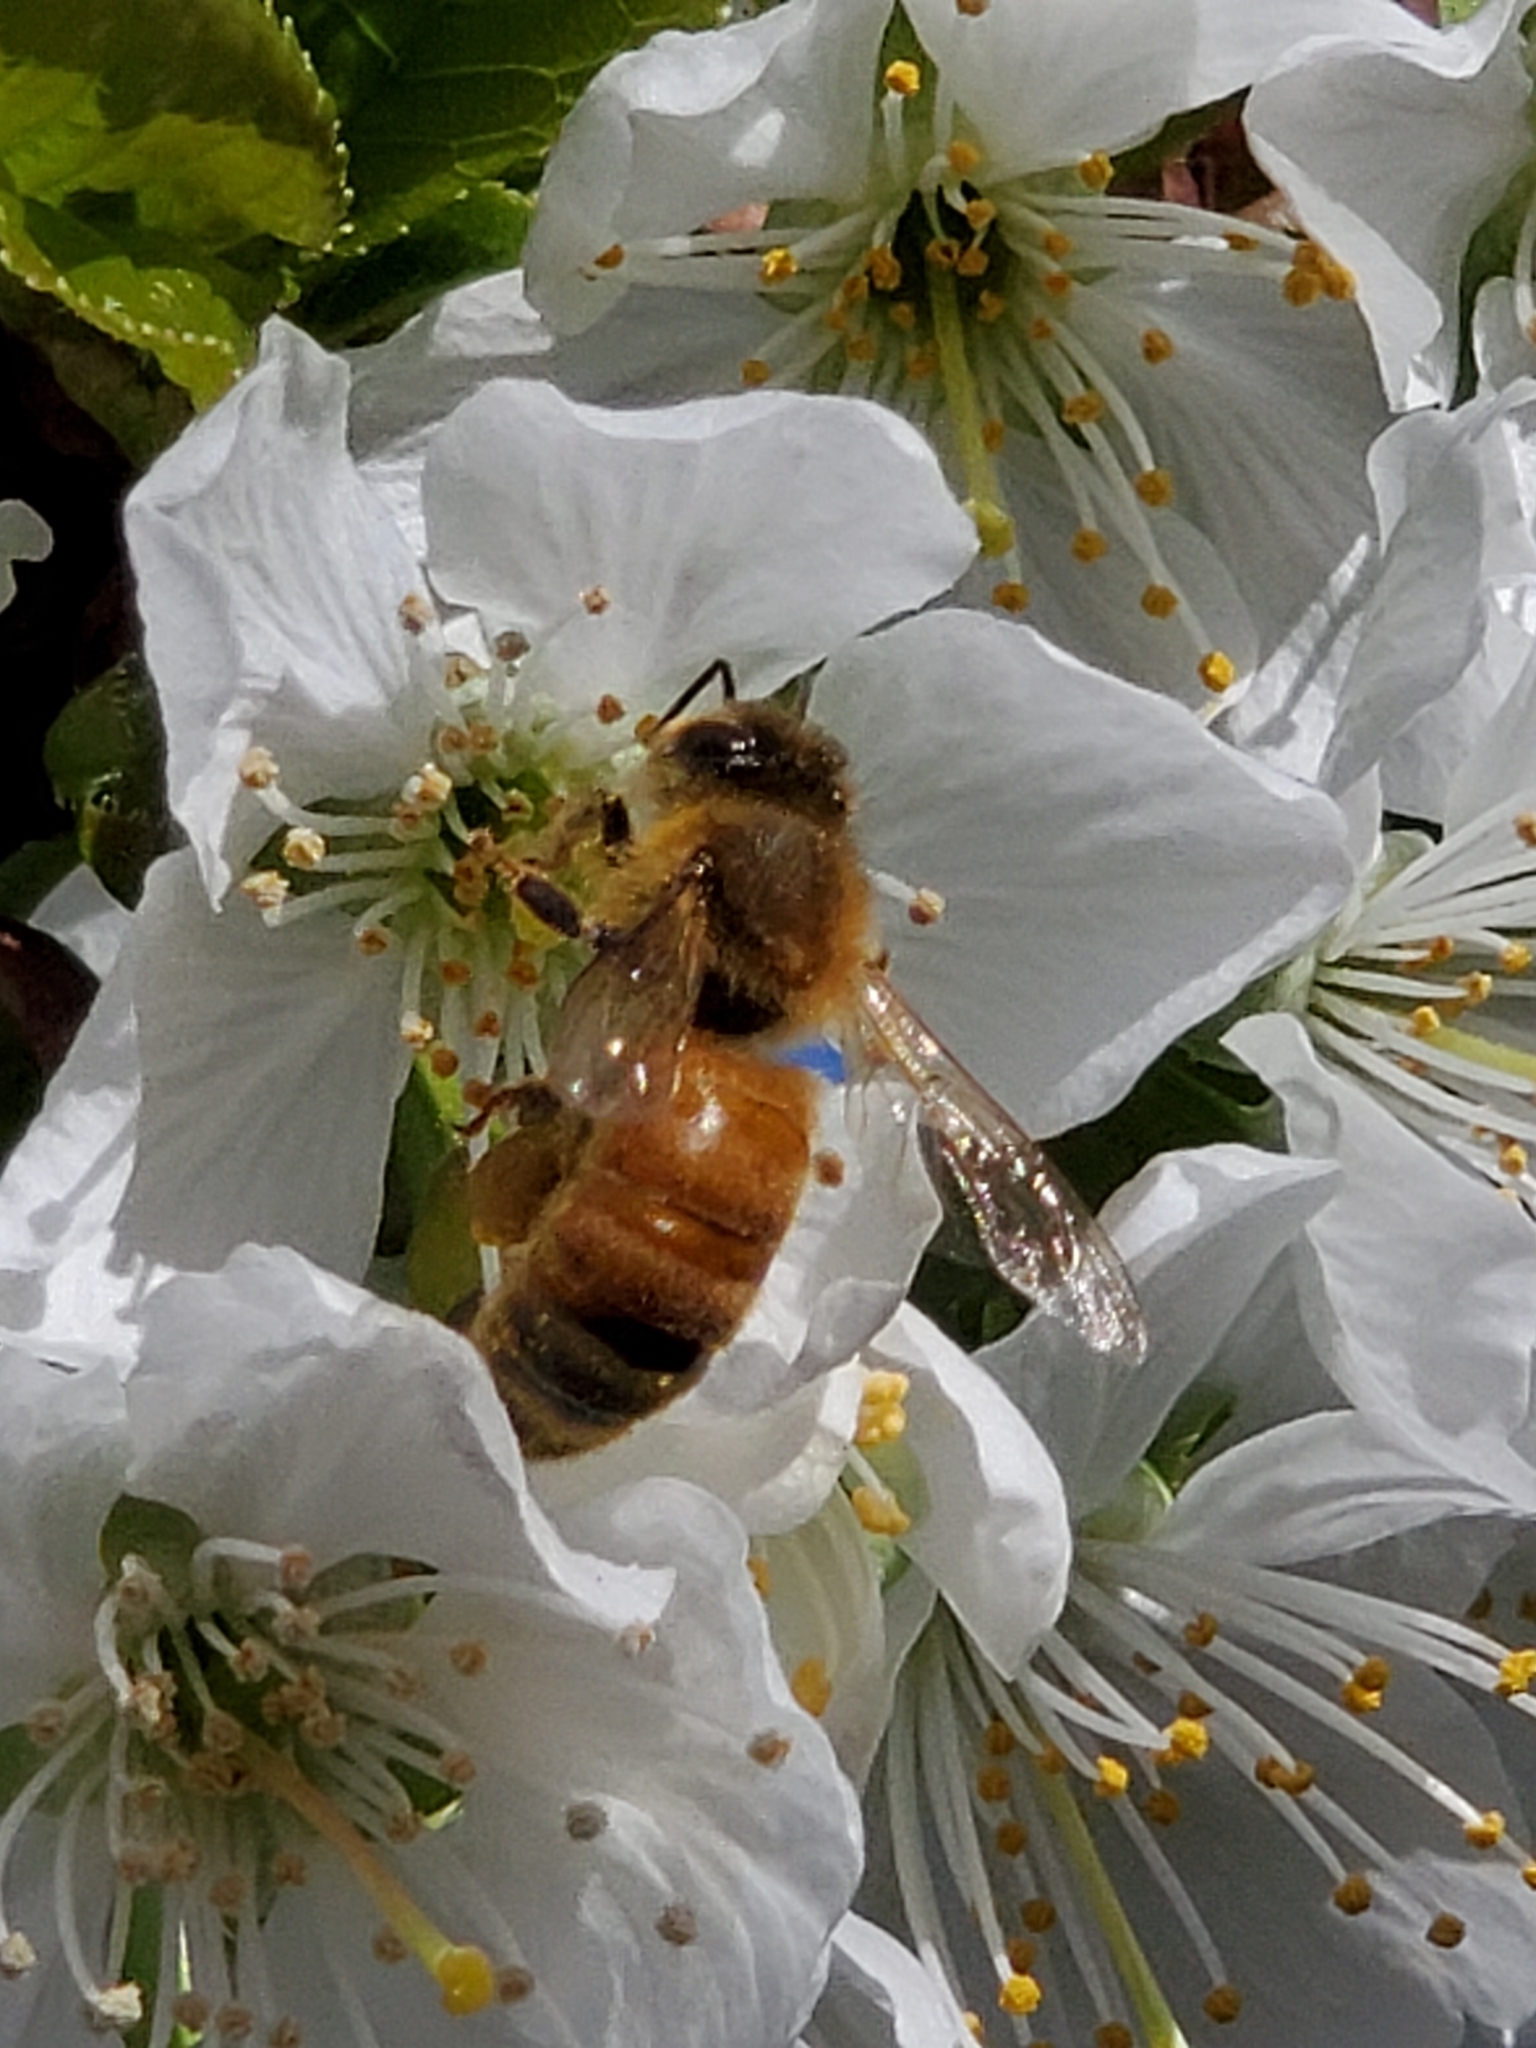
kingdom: Animalia
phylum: Arthropoda
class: Insecta
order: Hymenoptera
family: Apidae
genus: Apis
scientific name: Apis mellifera
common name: Honey bee
